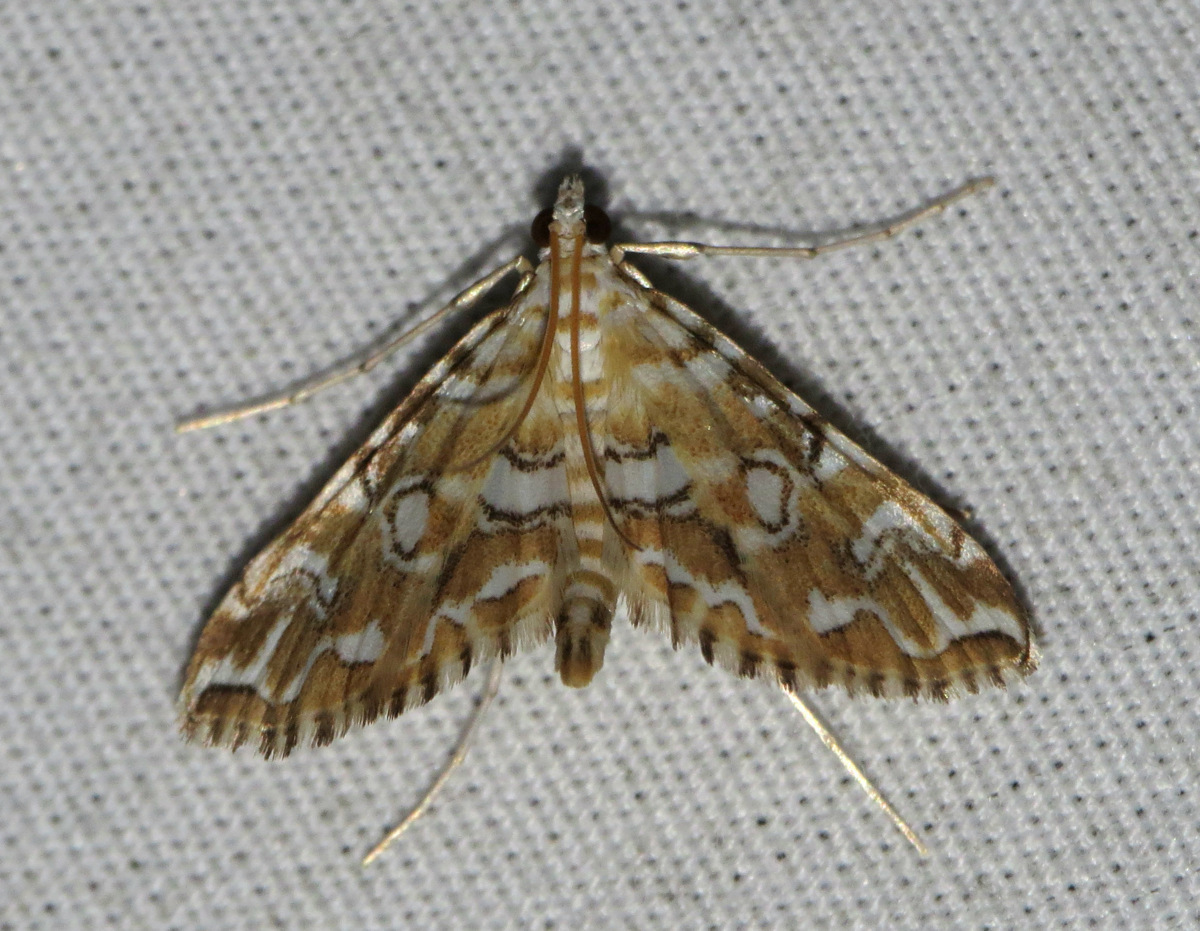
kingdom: Animalia
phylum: Arthropoda
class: Insecta
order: Lepidoptera
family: Crambidae
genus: Elophila
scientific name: Elophila icciusalis
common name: Pondside pyralid moth
